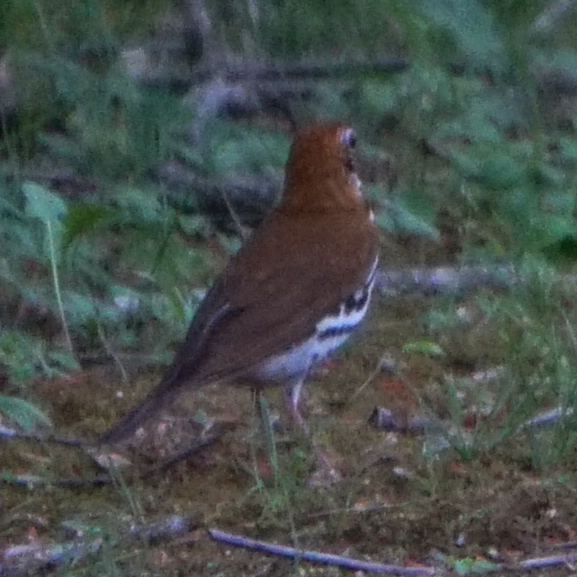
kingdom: Animalia
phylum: Chordata
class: Aves
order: Passeriformes
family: Turdidae
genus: Hylocichla
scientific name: Hylocichla mustelina
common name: Wood thrush
